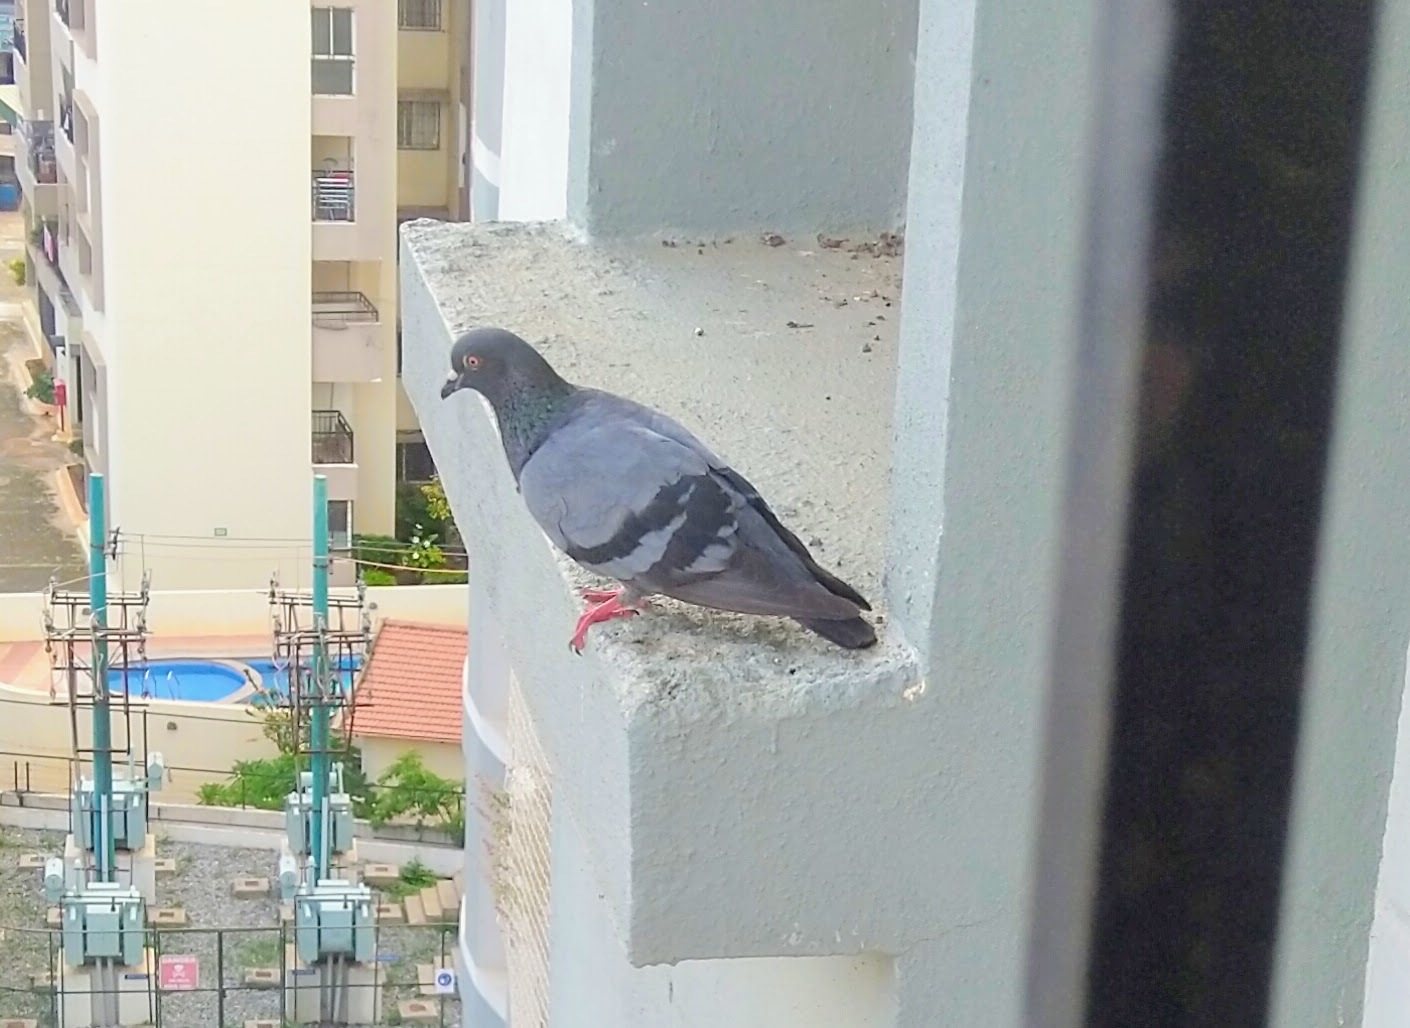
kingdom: Animalia
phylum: Chordata
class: Aves
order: Columbiformes
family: Columbidae
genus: Columba
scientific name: Columba livia
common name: Rock pigeon
